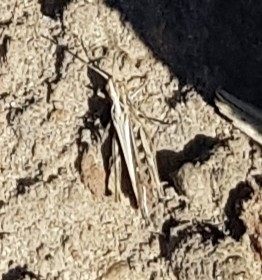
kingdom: Animalia
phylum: Arthropoda
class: Insecta
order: Orthoptera
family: Acrididae
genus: Chorthippus
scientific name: Chorthippus brunneus
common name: Field grasshopper
